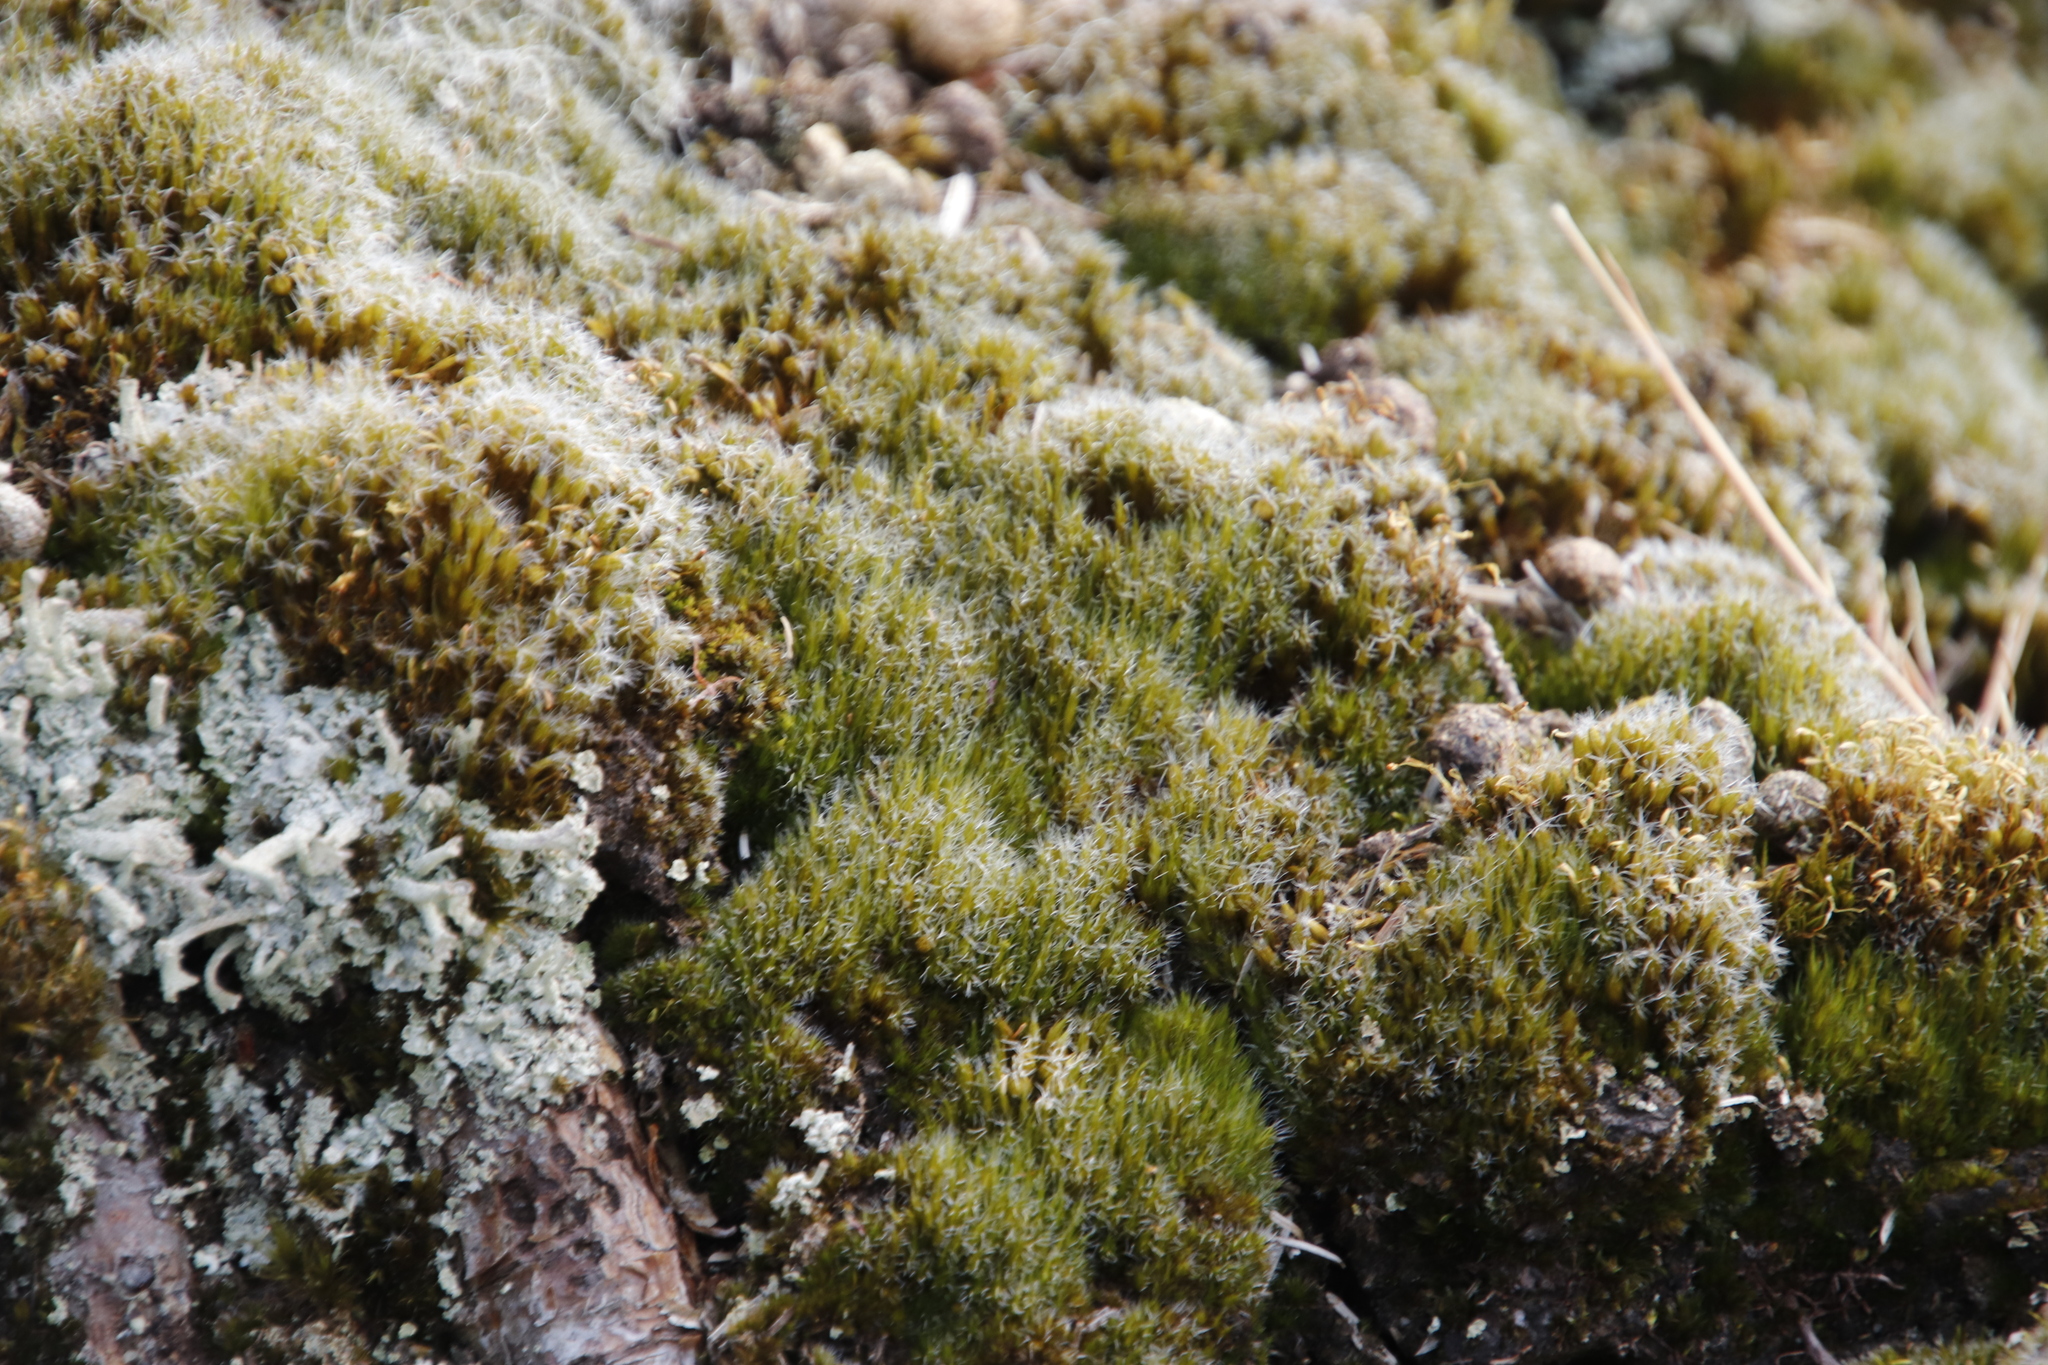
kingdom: Plantae
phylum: Bryophyta
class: Bryopsida
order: Dicranales
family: Leucobryaceae
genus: Campylopus
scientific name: Campylopus introflexus
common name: Heath star moss
